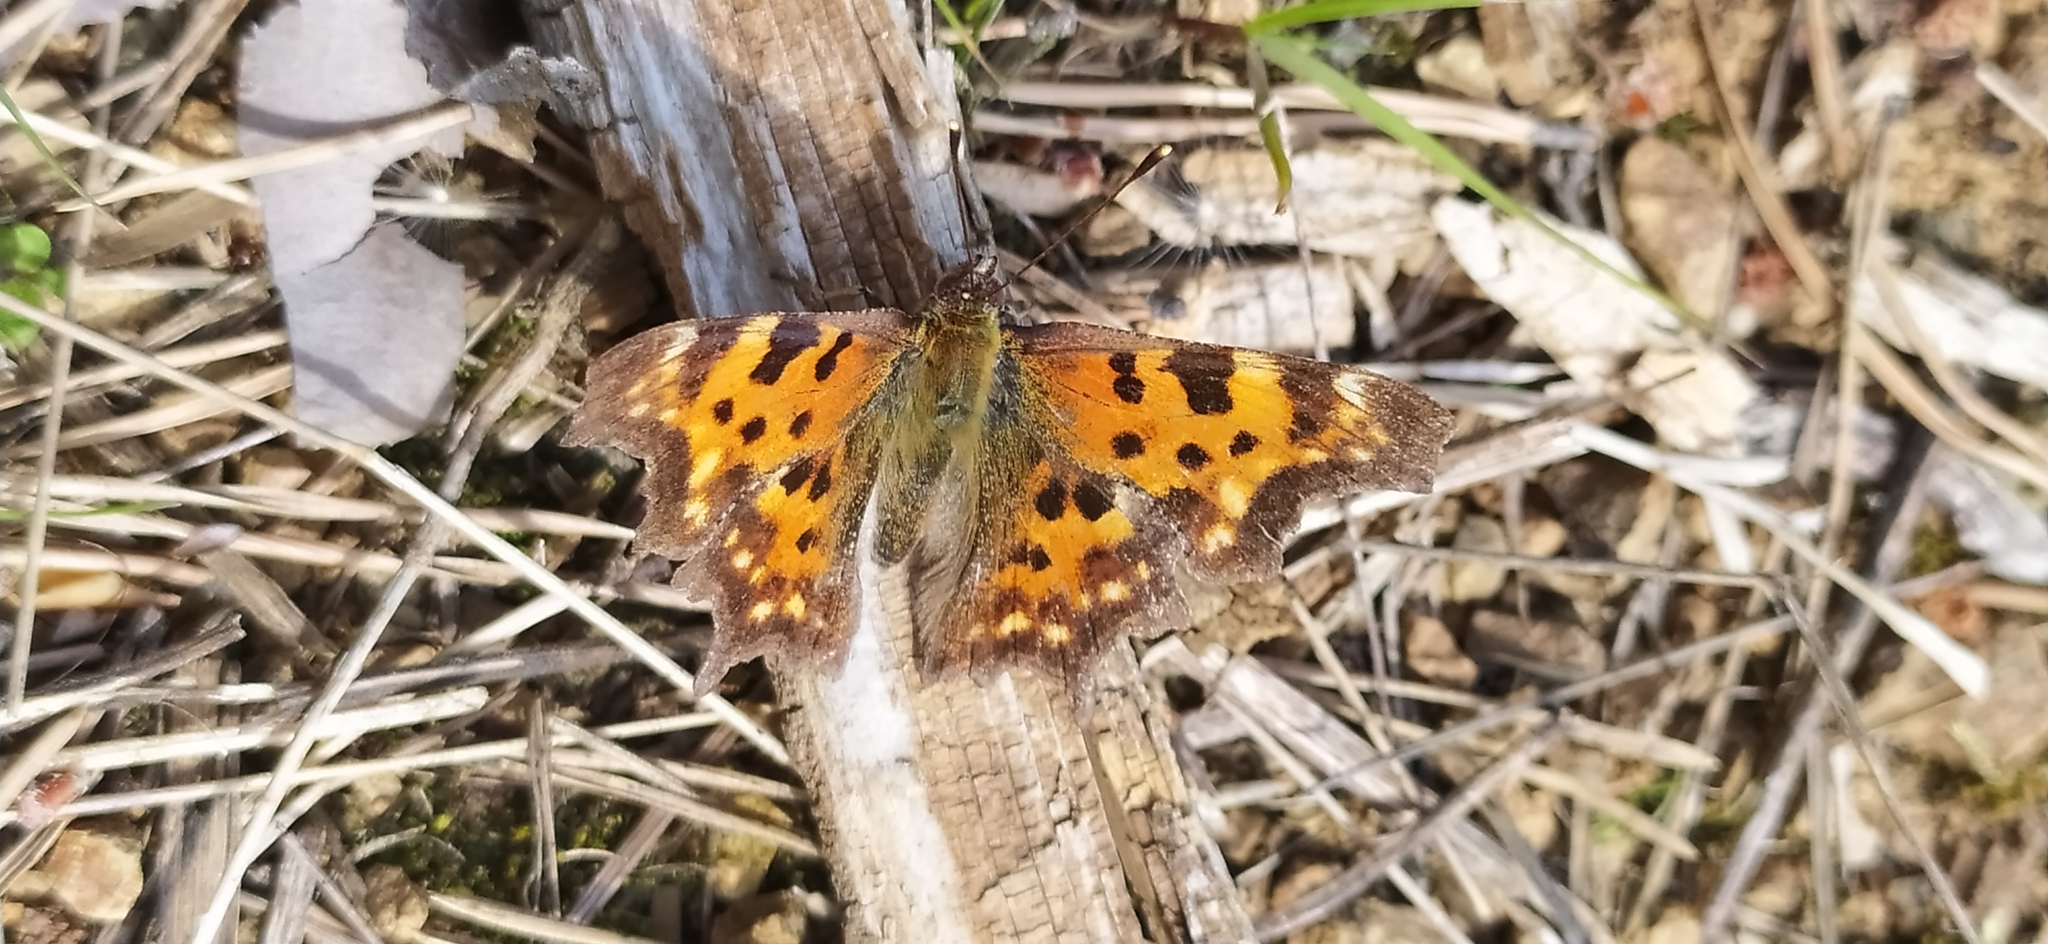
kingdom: Animalia
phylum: Arthropoda
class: Insecta
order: Lepidoptera
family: Nymphalidae
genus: Polygonia
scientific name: Polygonia c-album
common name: Comma
